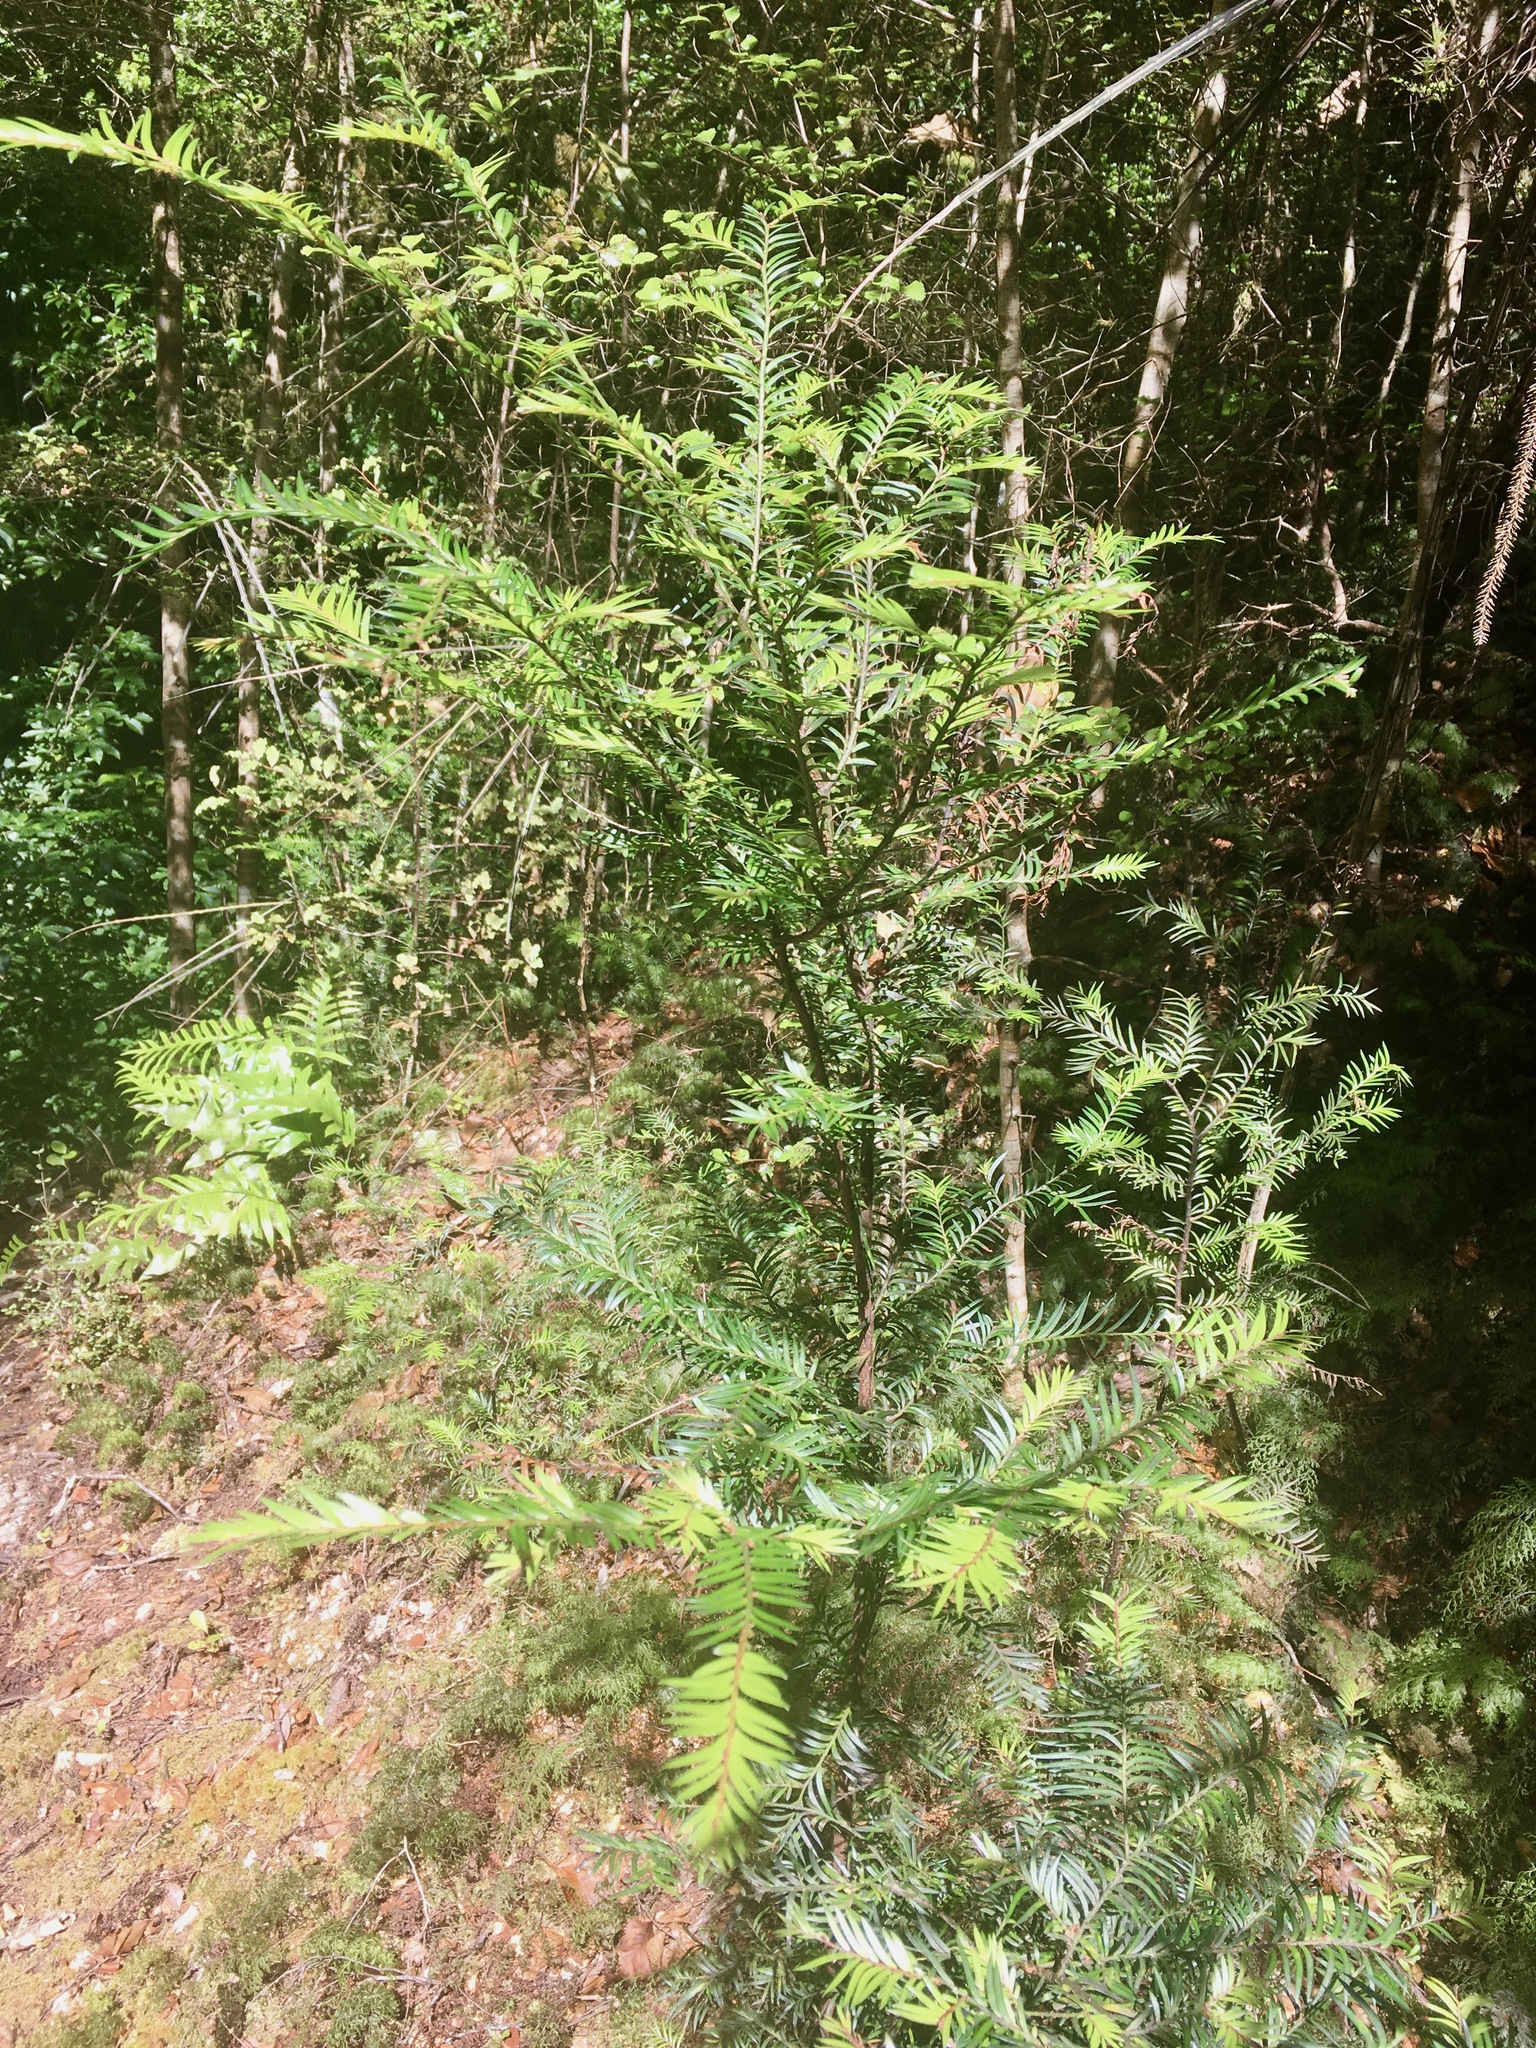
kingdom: Plantae
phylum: Tracheophyta
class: Pinopsida
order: Pinales
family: Podocarpaceae
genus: Prumnopitys
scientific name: Prumnopitys ferruginea
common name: Brown pine
